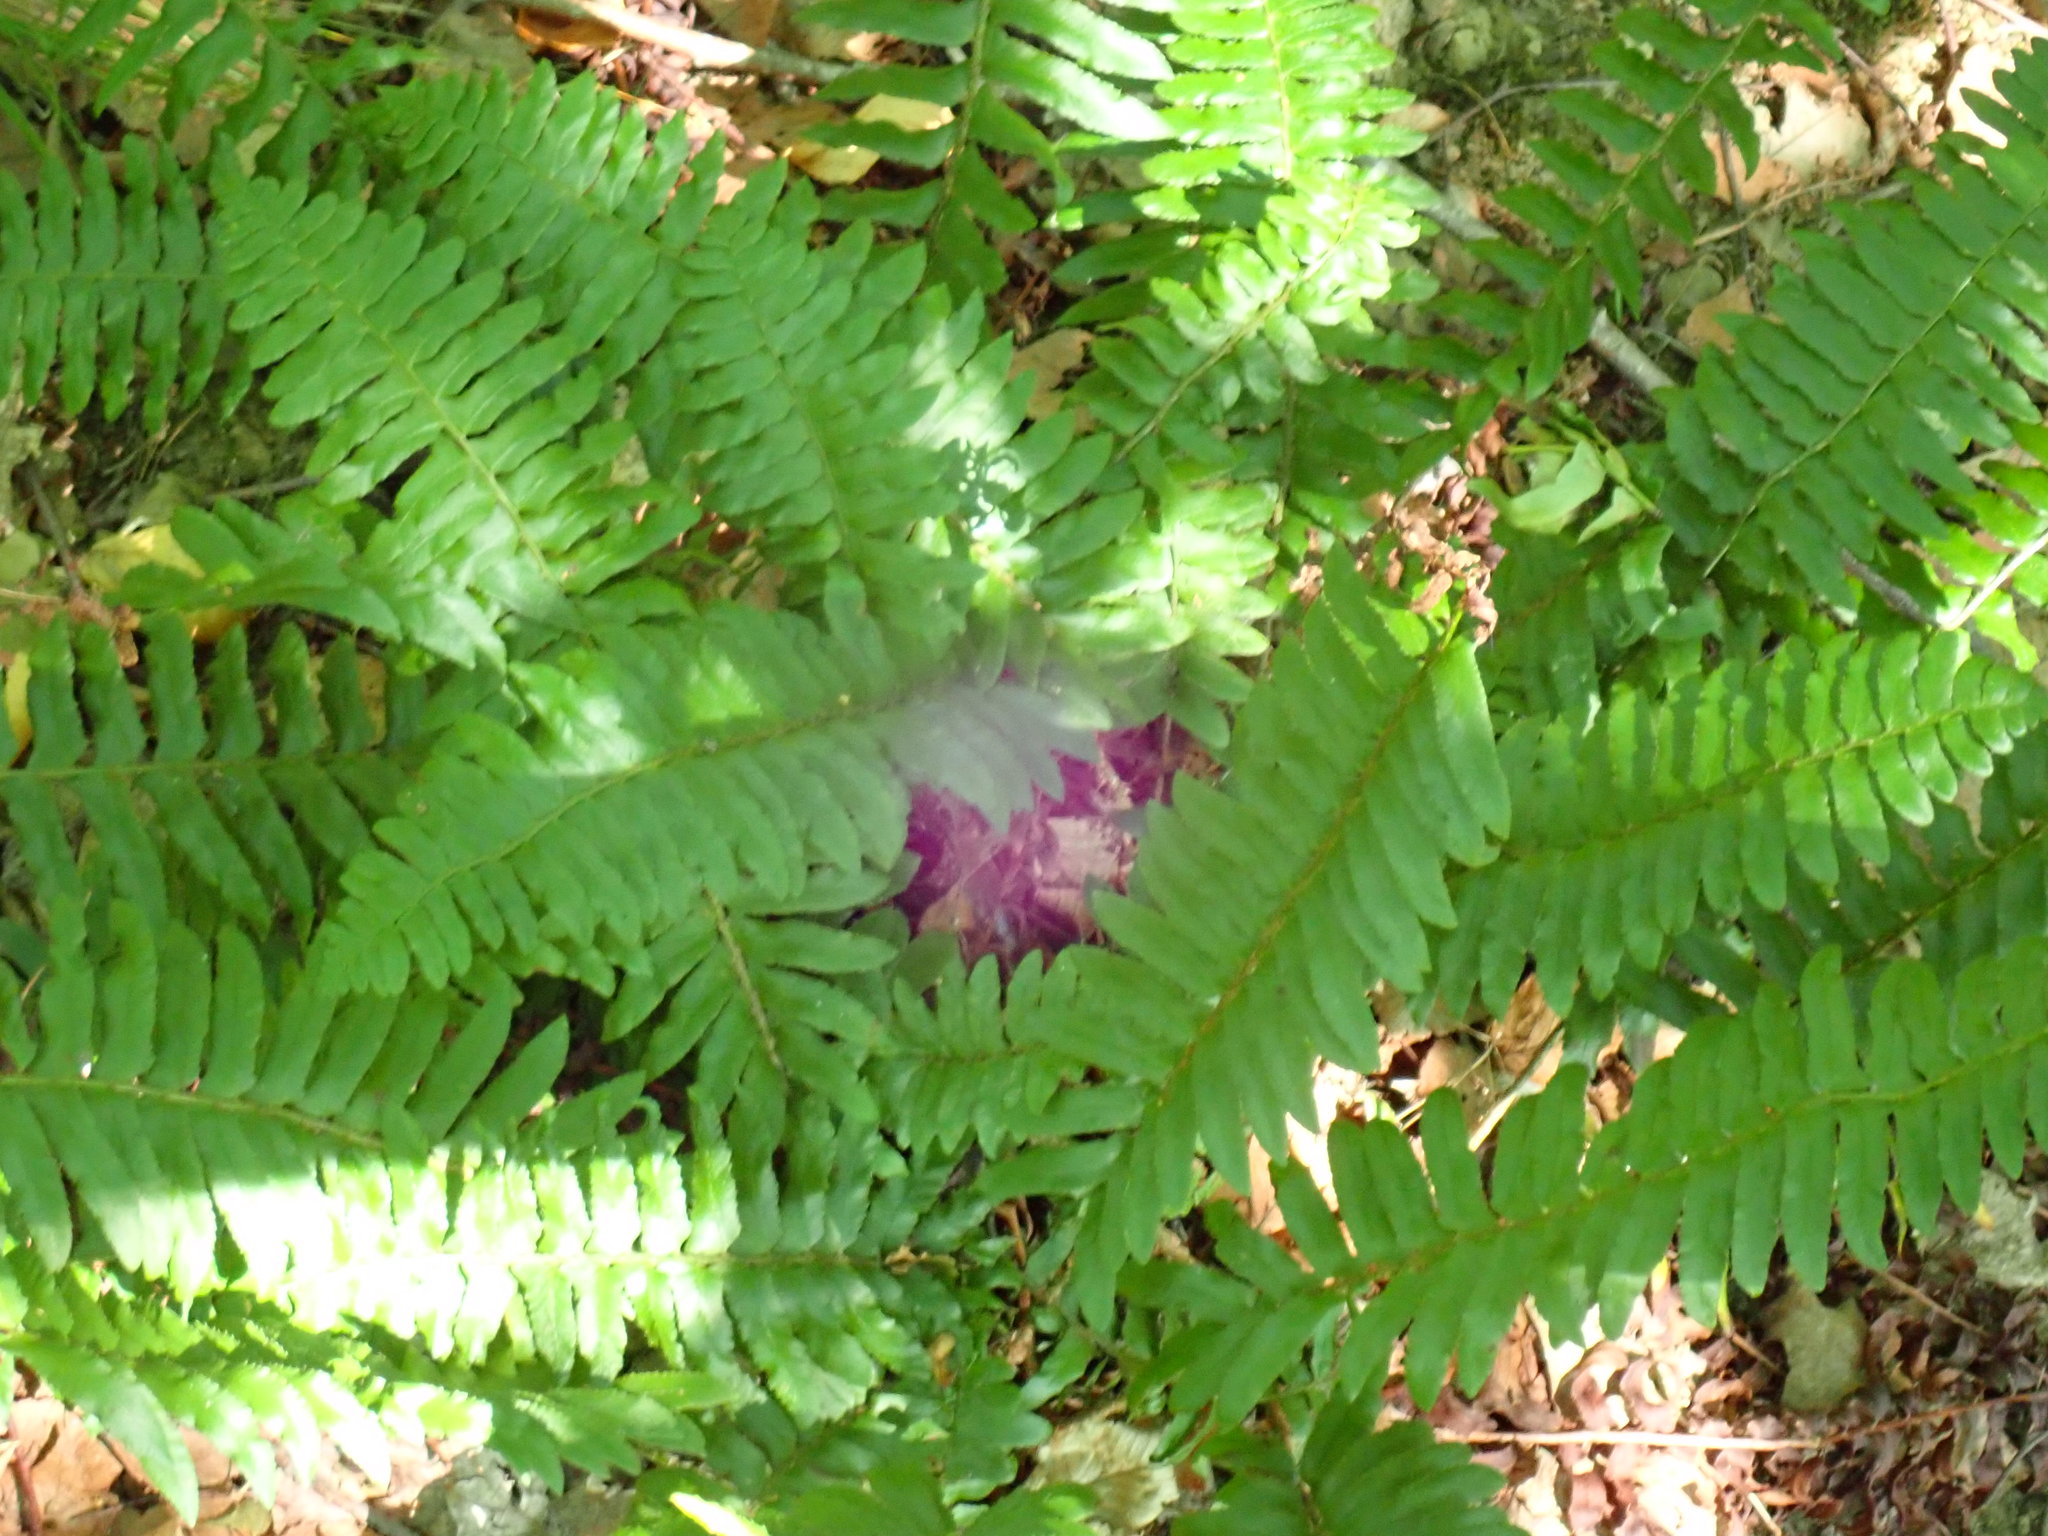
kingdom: Plantae
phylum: Tracheophyta
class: Polypodiopsida
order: Polypodiales
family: Dryopteridaceae
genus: Polystichum
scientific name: Polystichum acrostichoides
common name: Christmas fern
